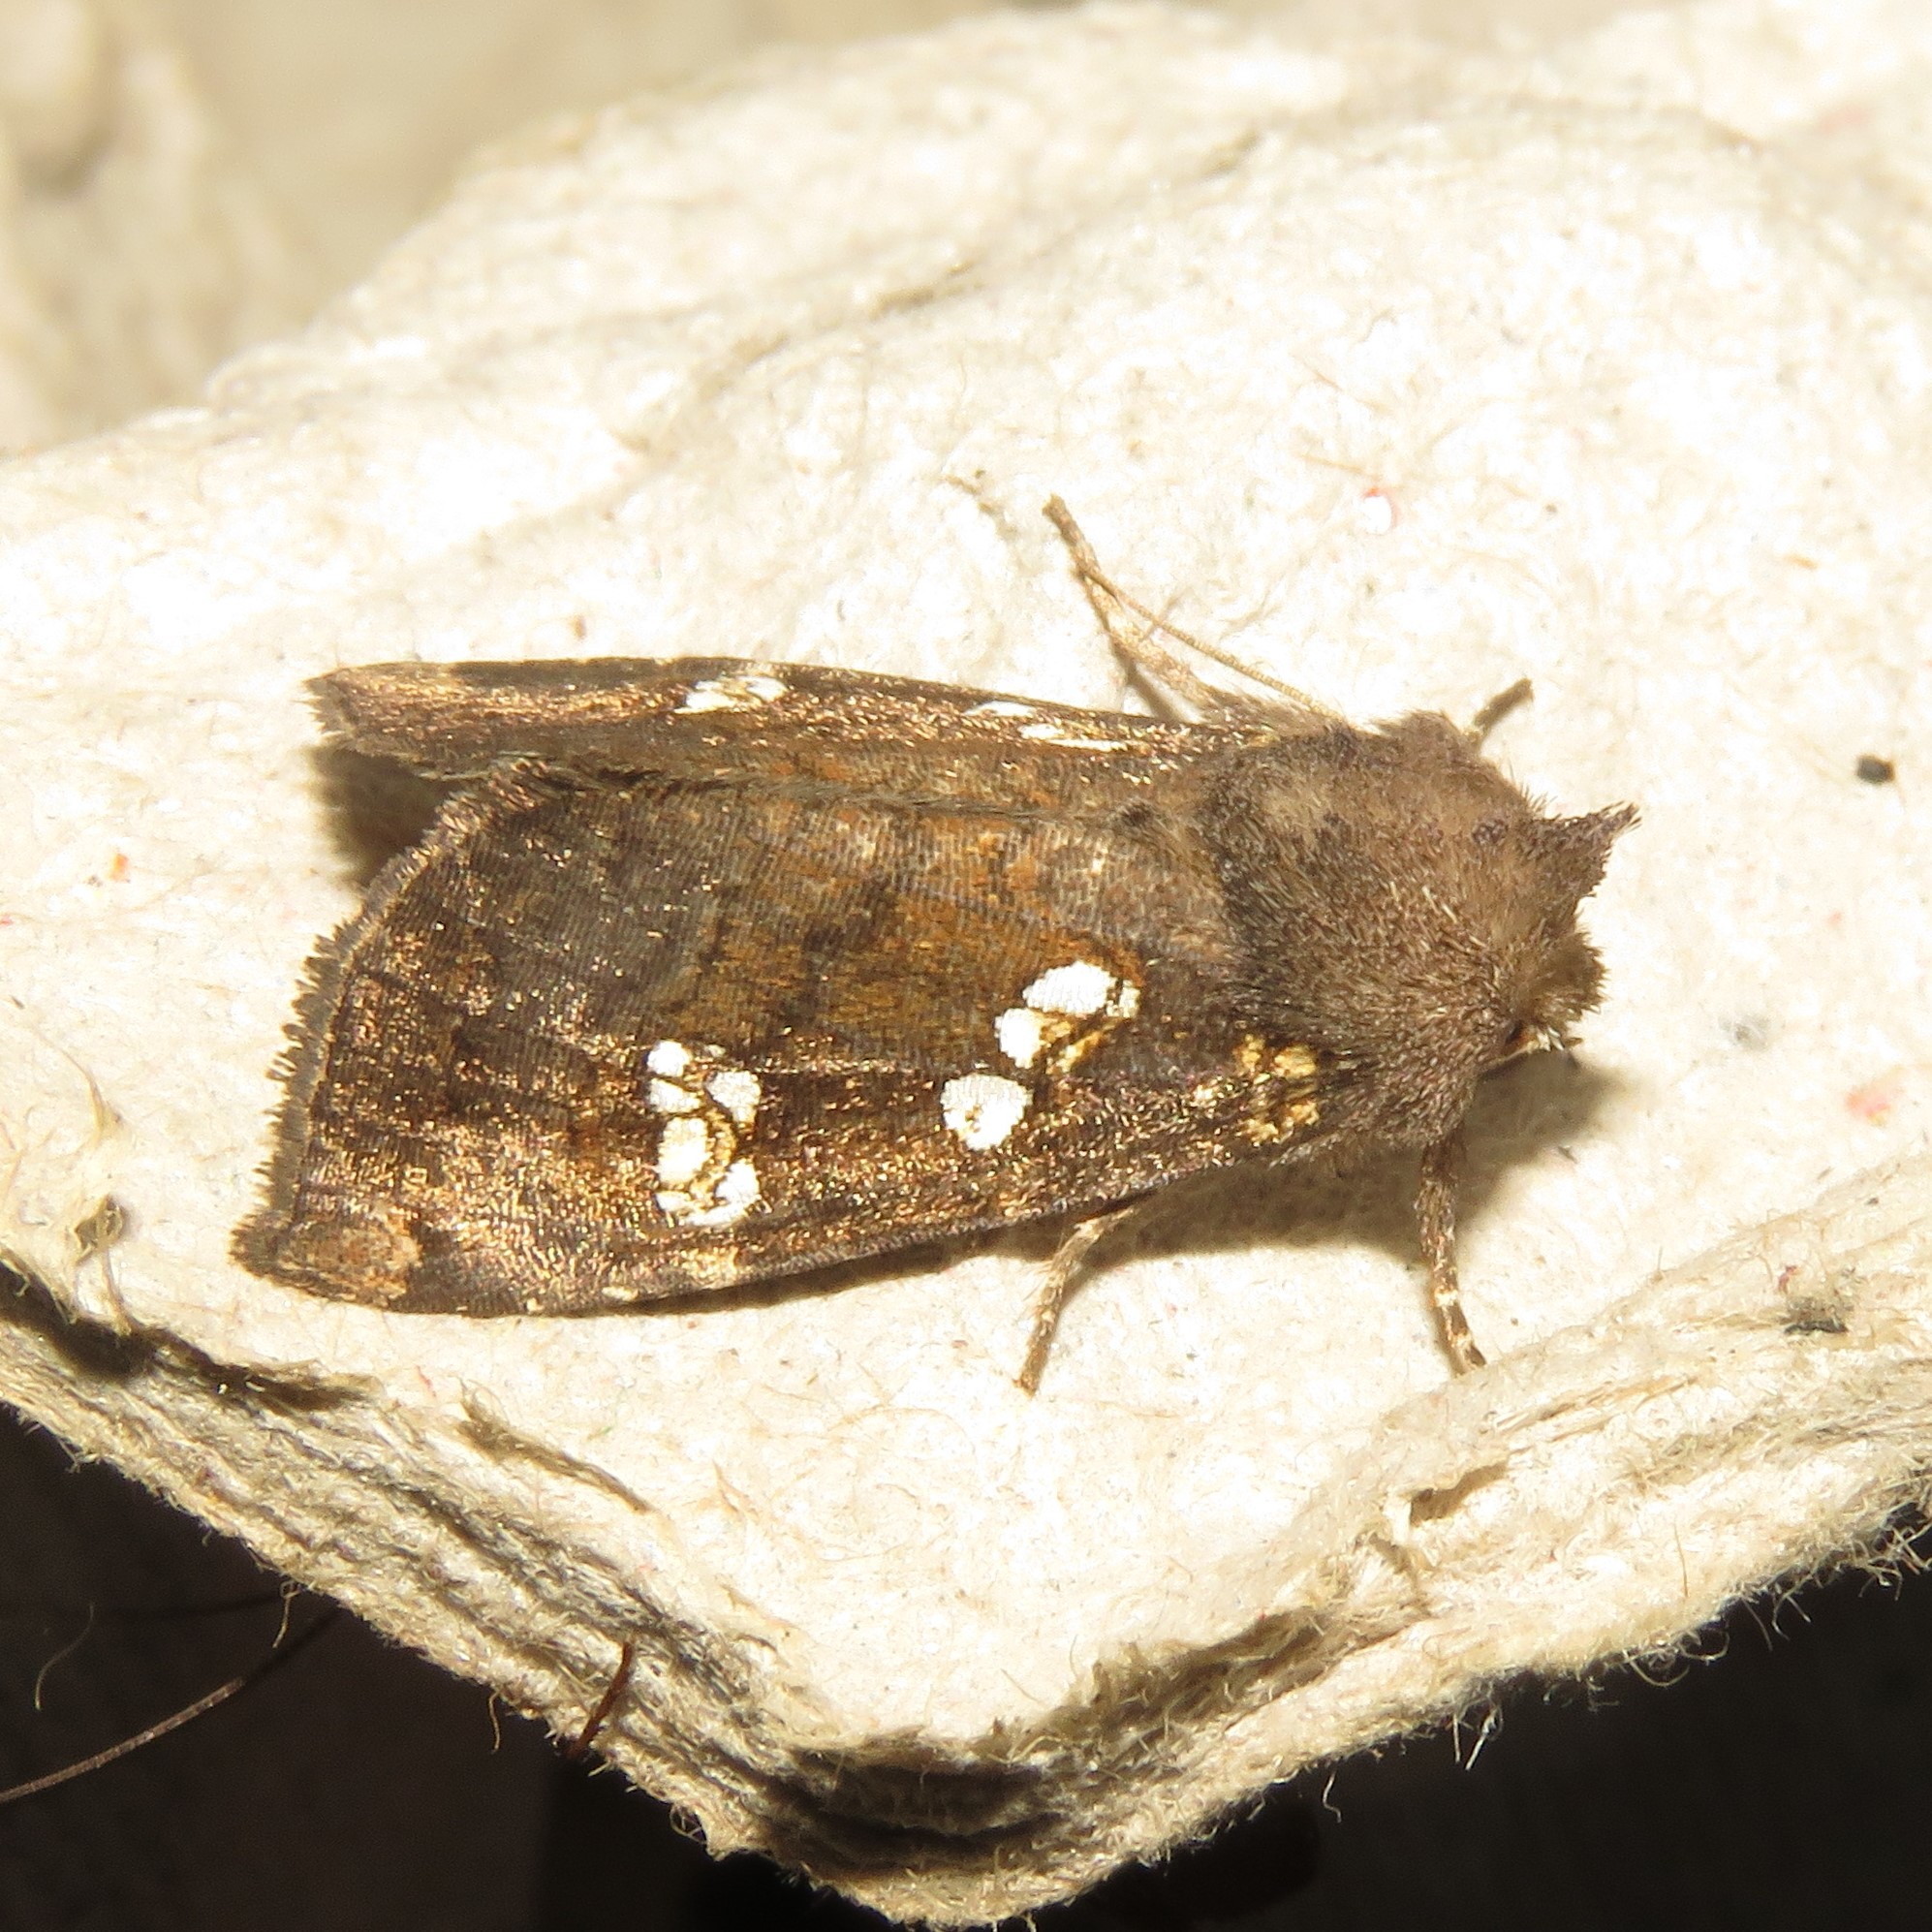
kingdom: Animalia
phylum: Arthropoda
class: Insecta
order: Lepidoptera
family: Noctuidae
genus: Papaipema
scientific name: Papaipema unimoda
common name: Meadow rue borer moth
